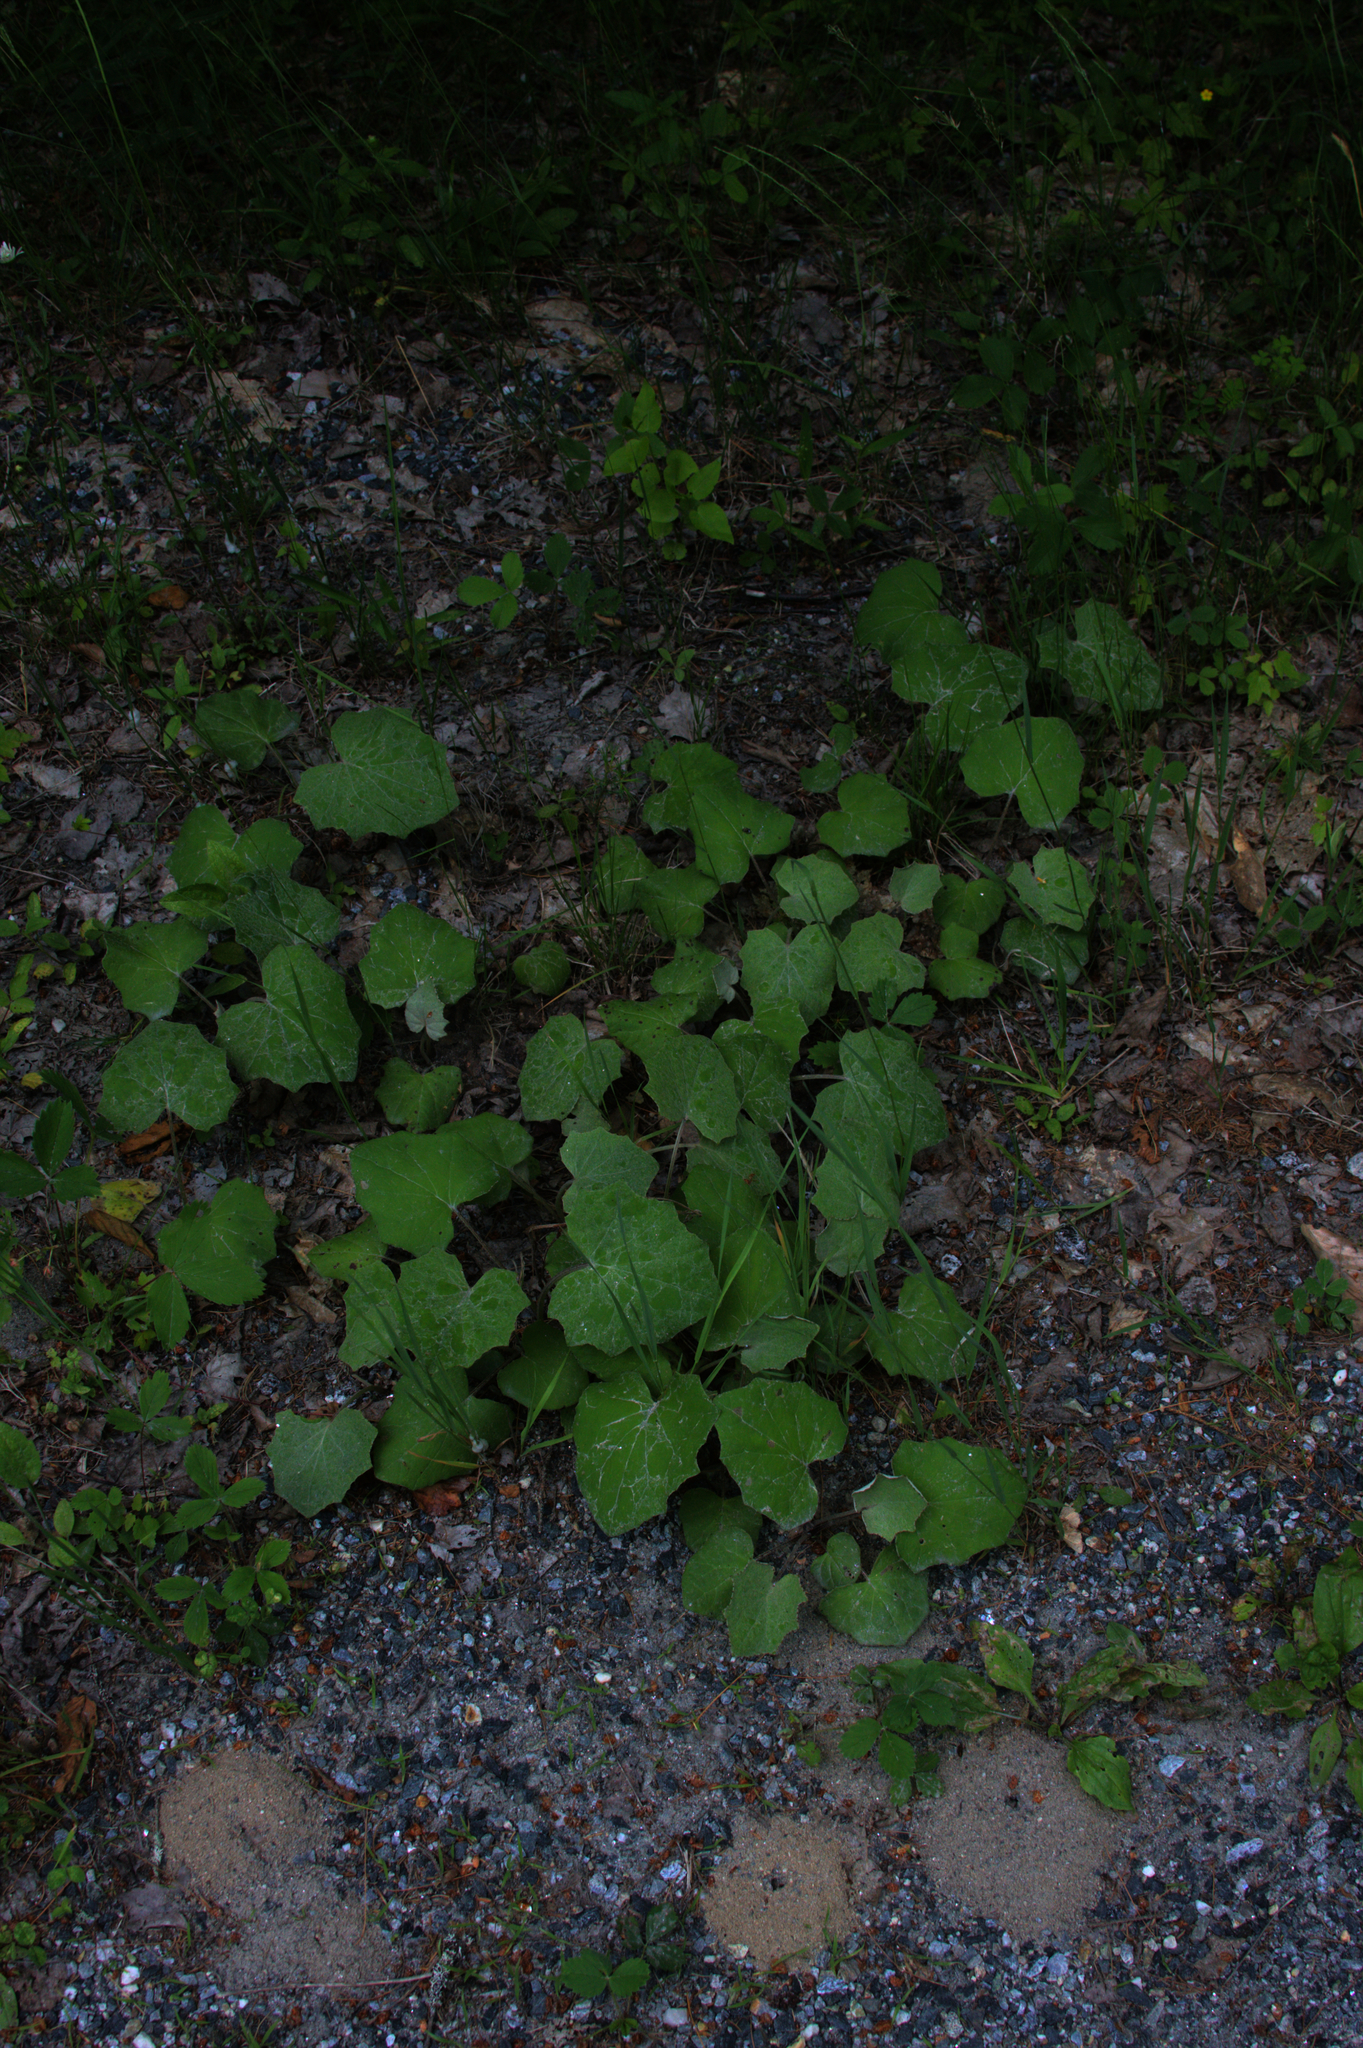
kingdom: Plantae
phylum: Tracheophyta
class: Magnoliopsida
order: Asterales
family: Asteraceae
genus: Tussilago
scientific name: Tussilago farfara
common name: Coltsfoot
